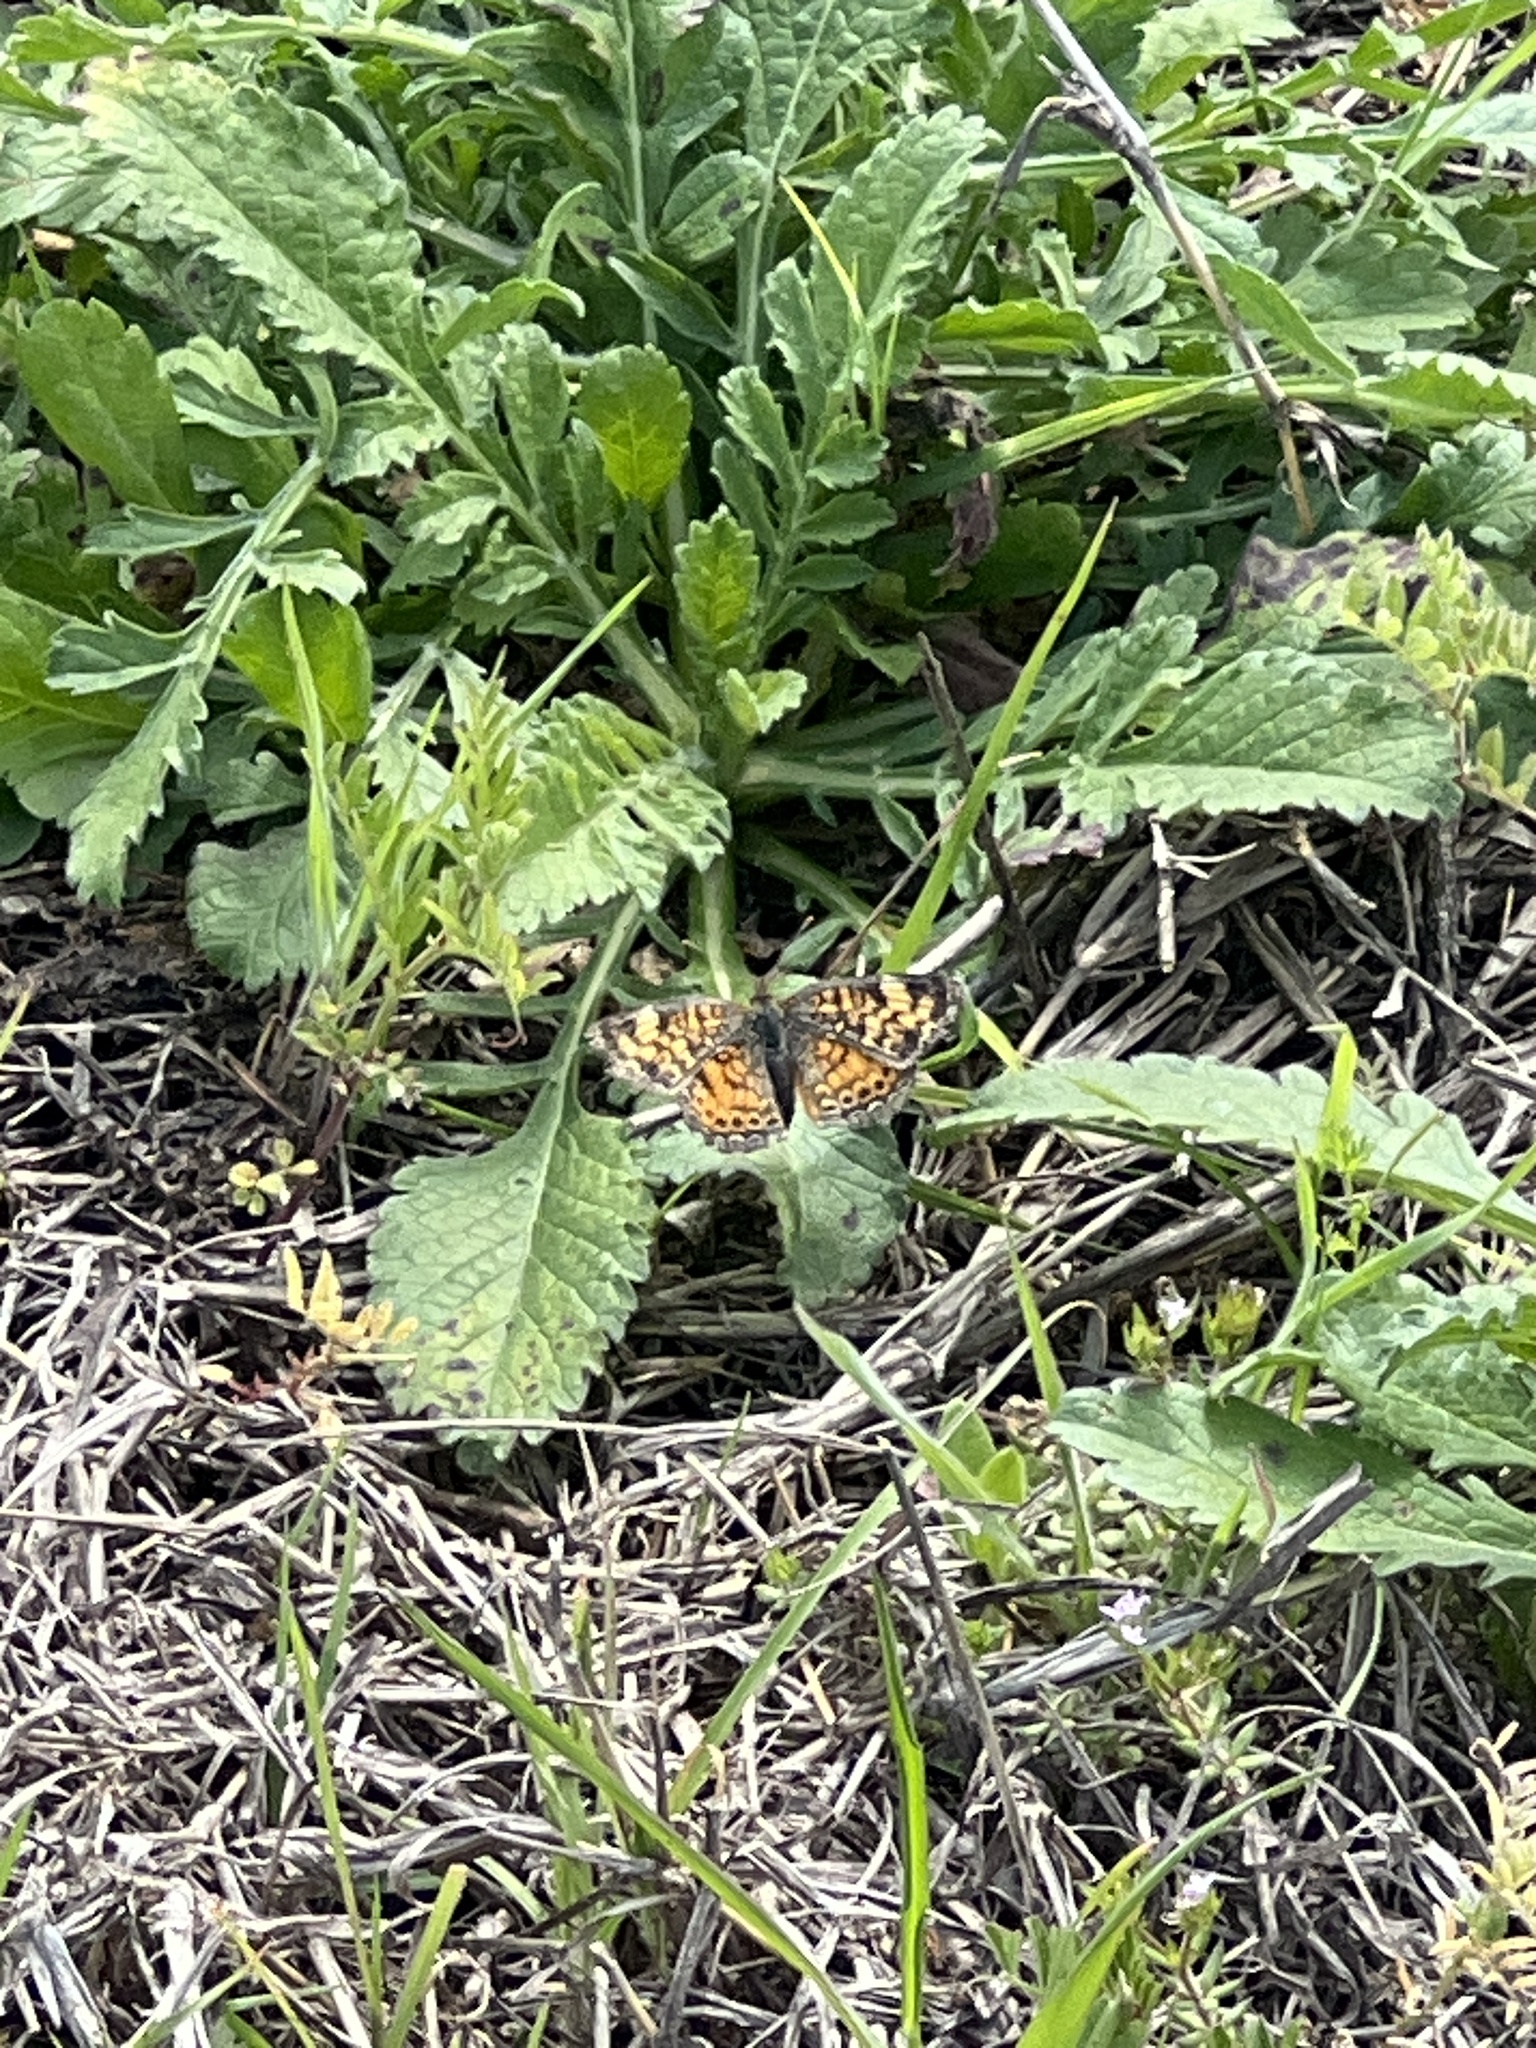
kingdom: Animalia
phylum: Arthropoda
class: Insecta
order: Lepidoptera
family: Nymphalidae
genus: Phyciodes
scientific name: Phyciodes tharos
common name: Pearl crescent
